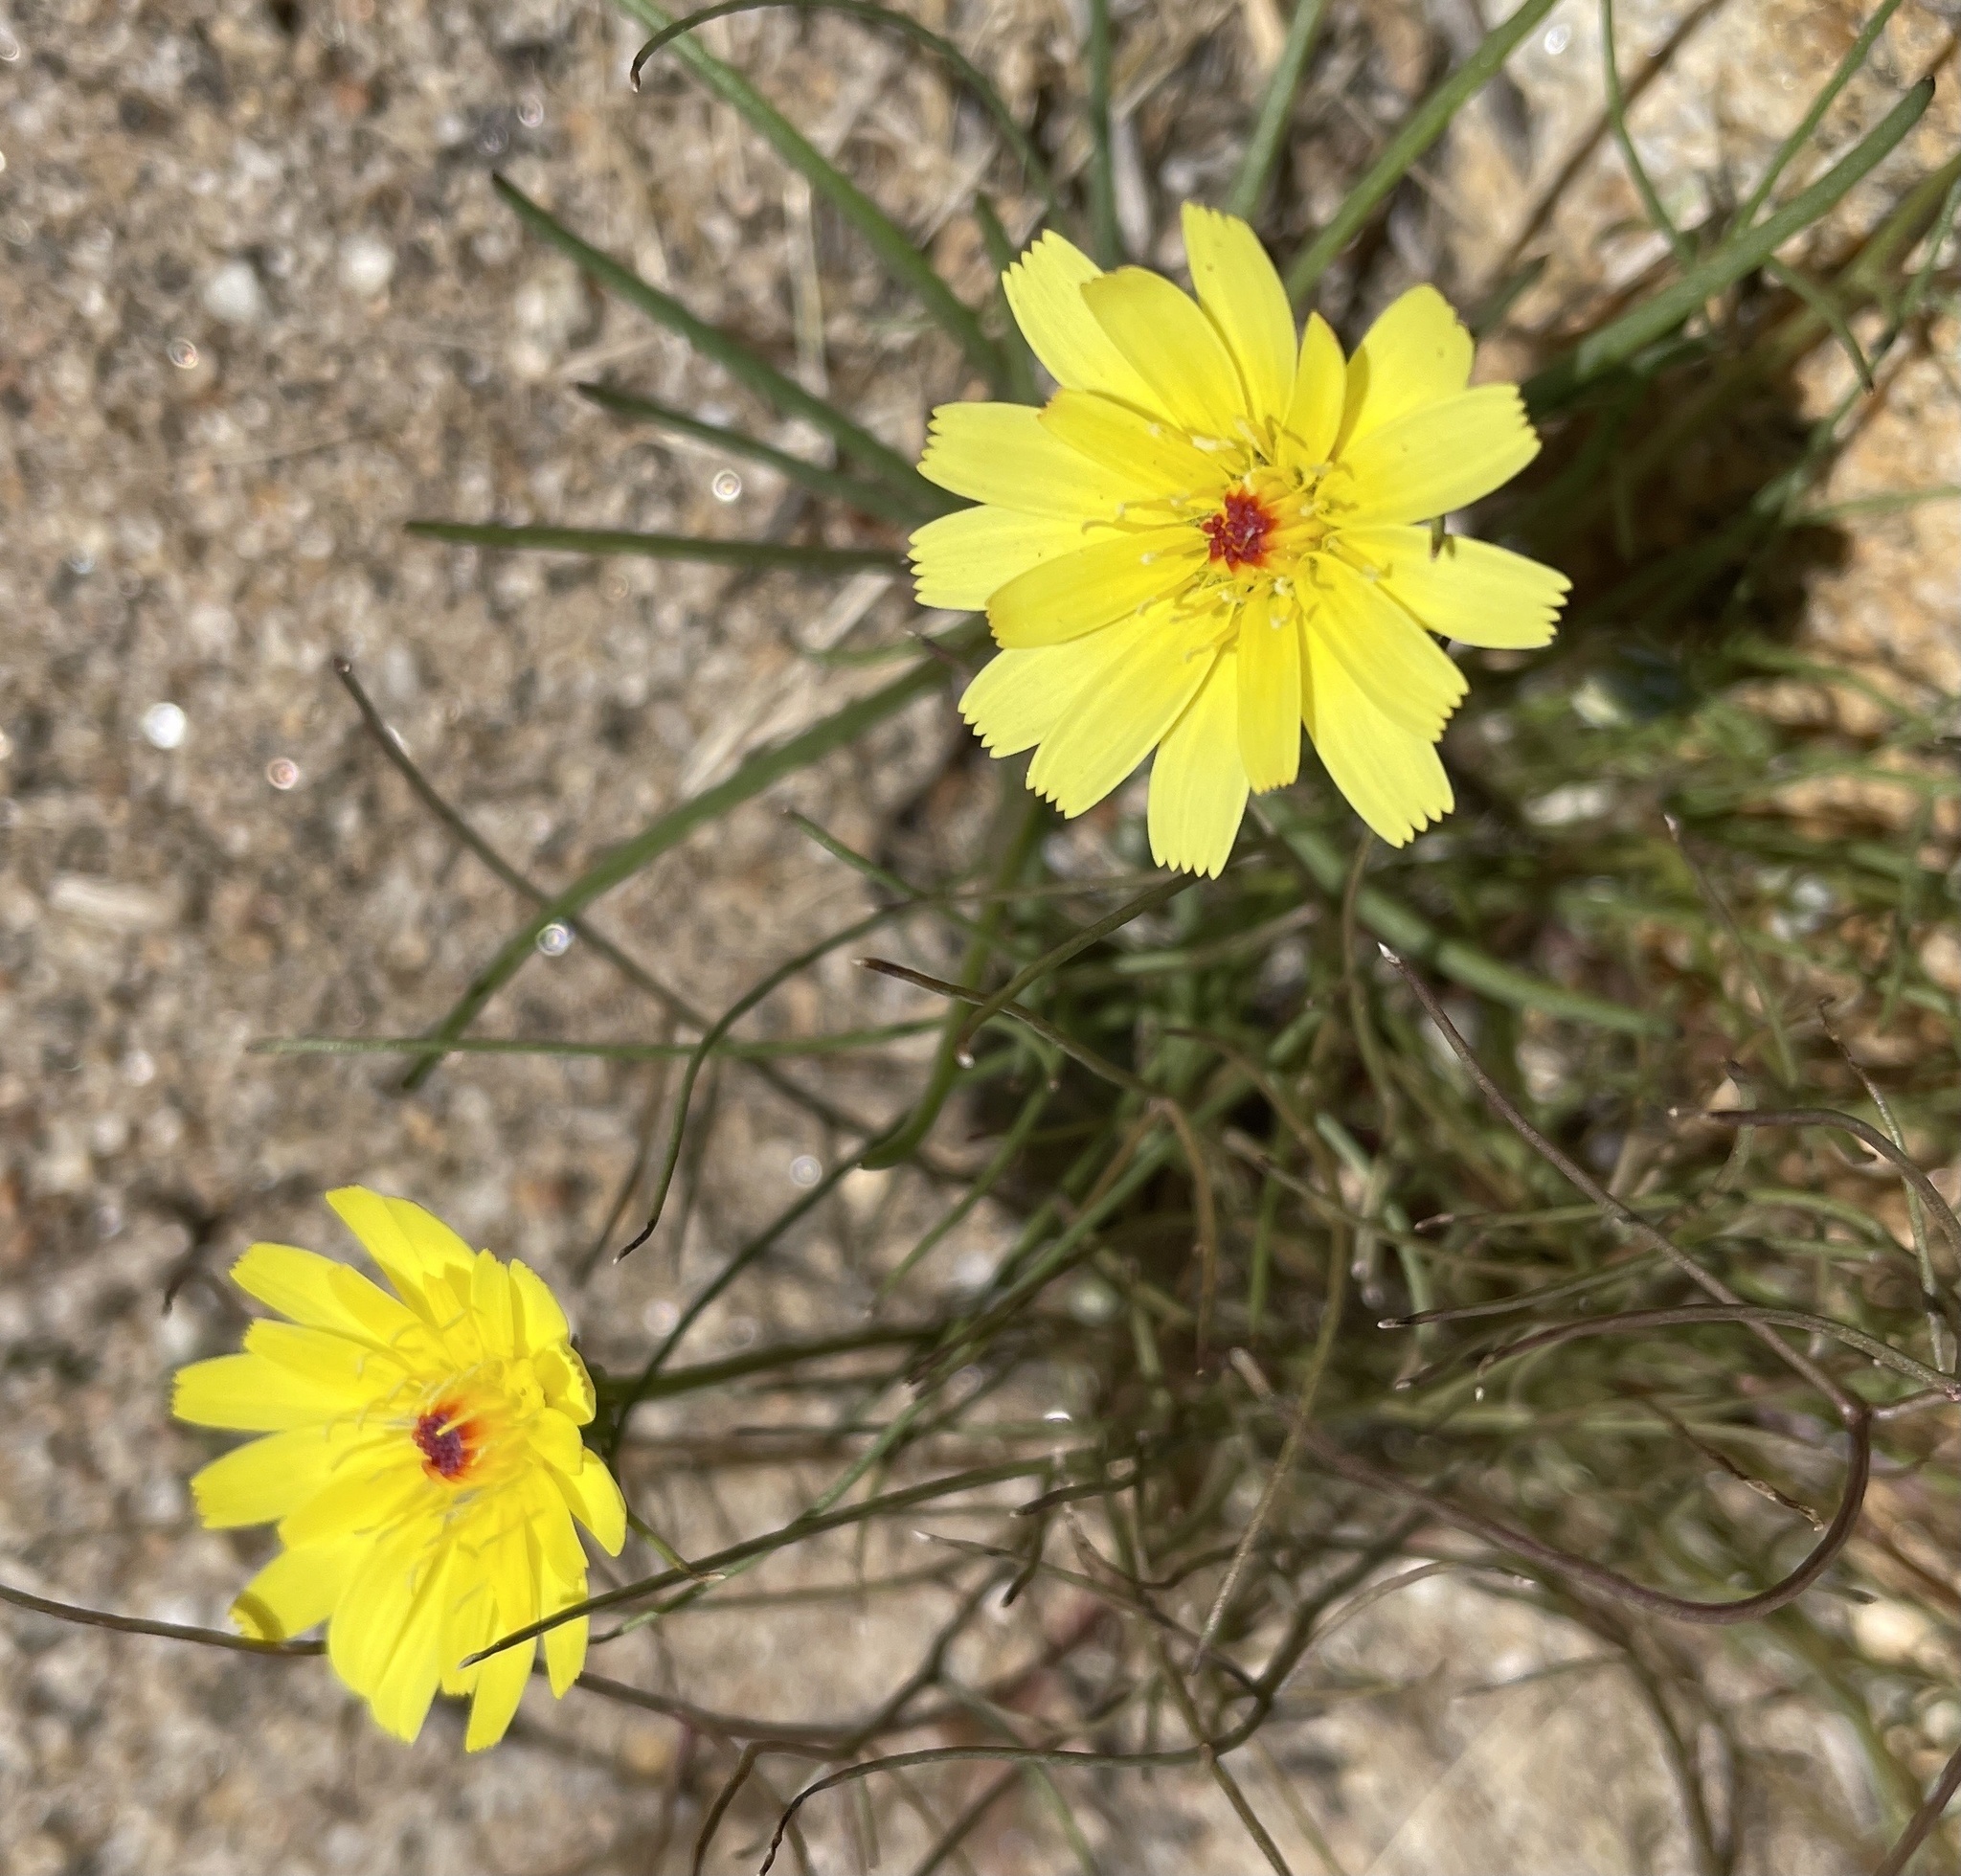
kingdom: Plantae
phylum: Tracheophyta
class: Magnoliopsida
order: Asterales
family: Asteraceae
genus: Malacothrix
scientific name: Malacothrix glabrata
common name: Smooth desert-dandelion
